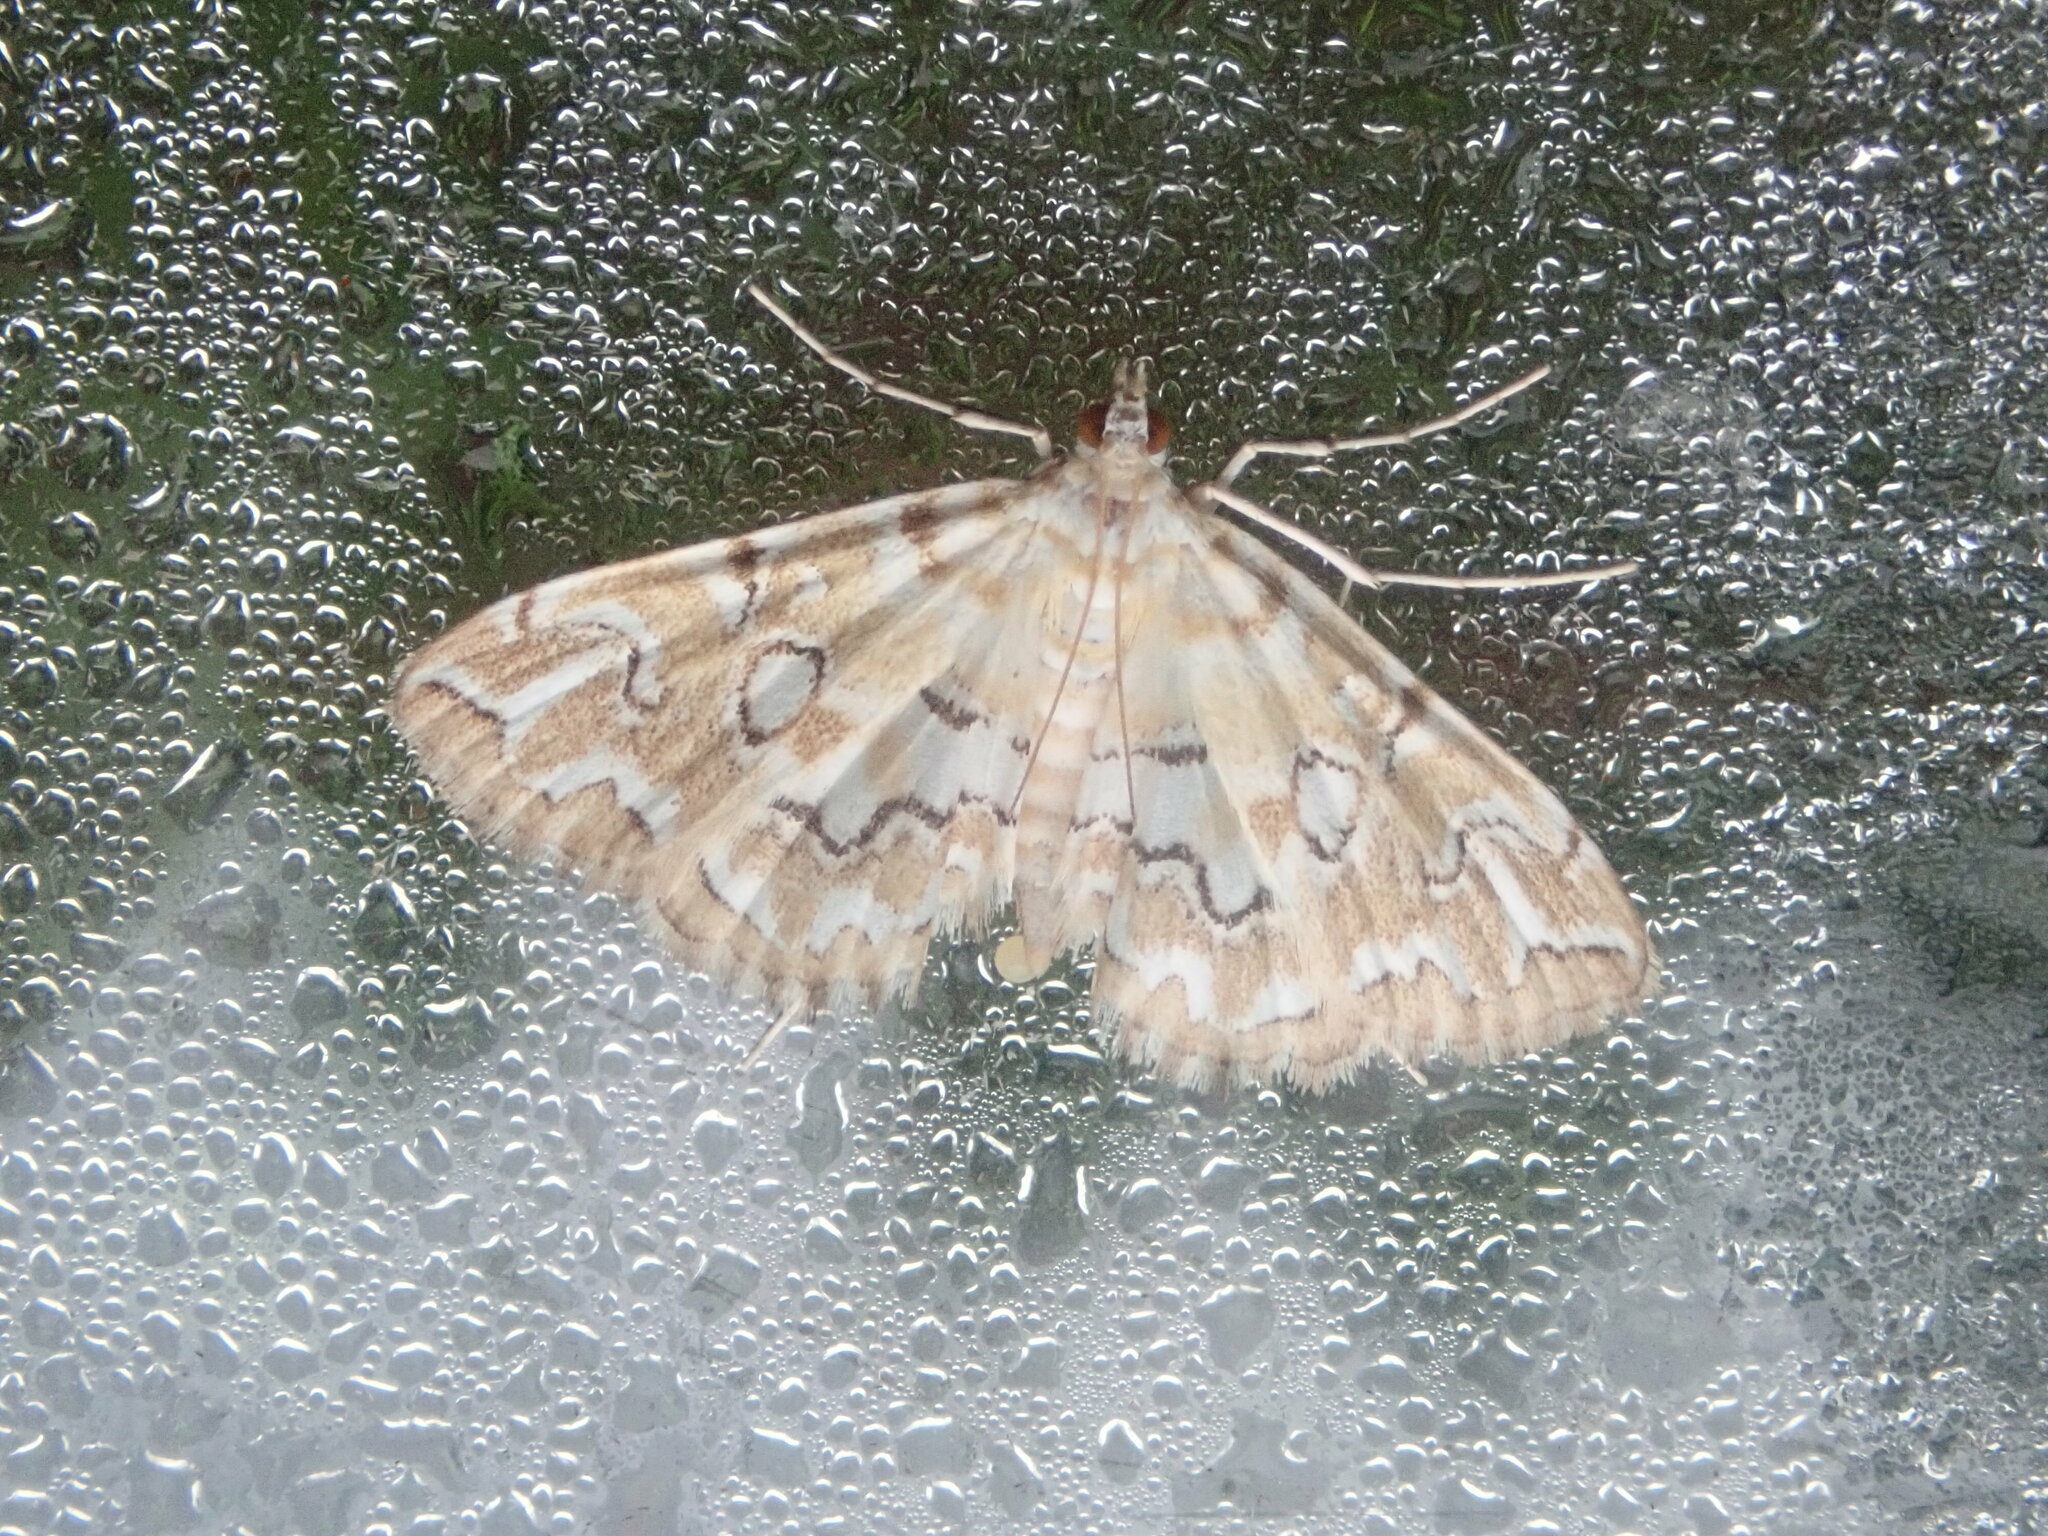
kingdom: Animalia
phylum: Arthropoda
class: Insecta
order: Lepidoptera
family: Crambidae
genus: Elophila
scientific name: Elophila icciusalis
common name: Pondside pyralid moth
